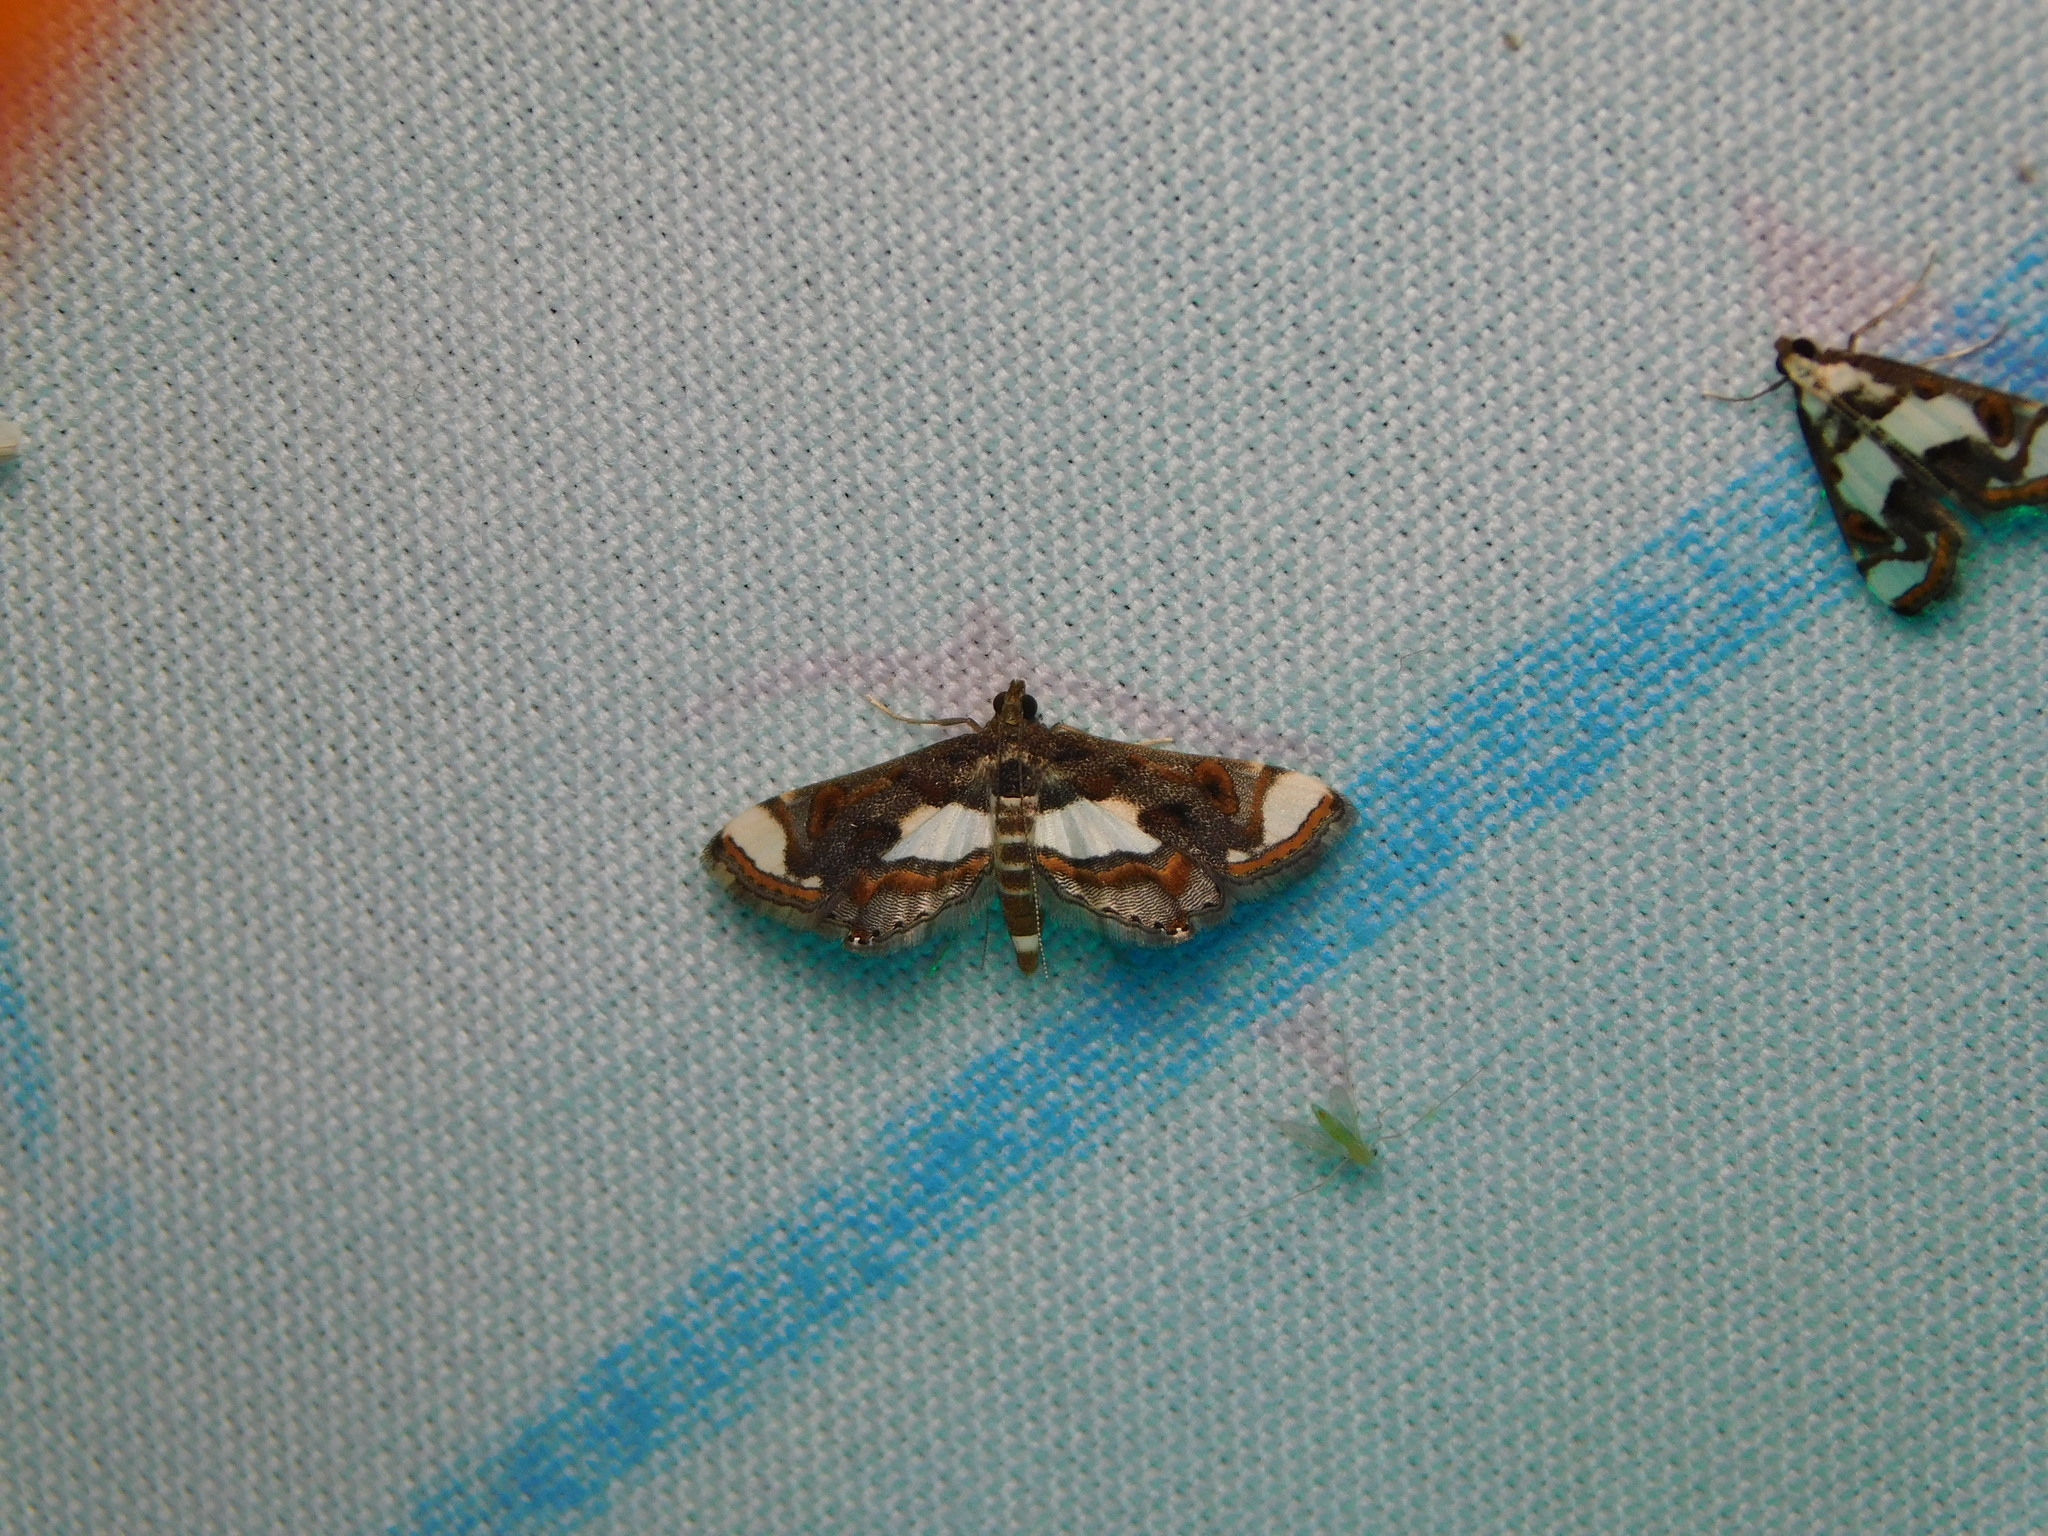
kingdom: Animalia
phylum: Arthropoda
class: Insecta
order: Lepidoptera
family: Crambidae
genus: Agassiziella
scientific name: Agassiziella picalis
